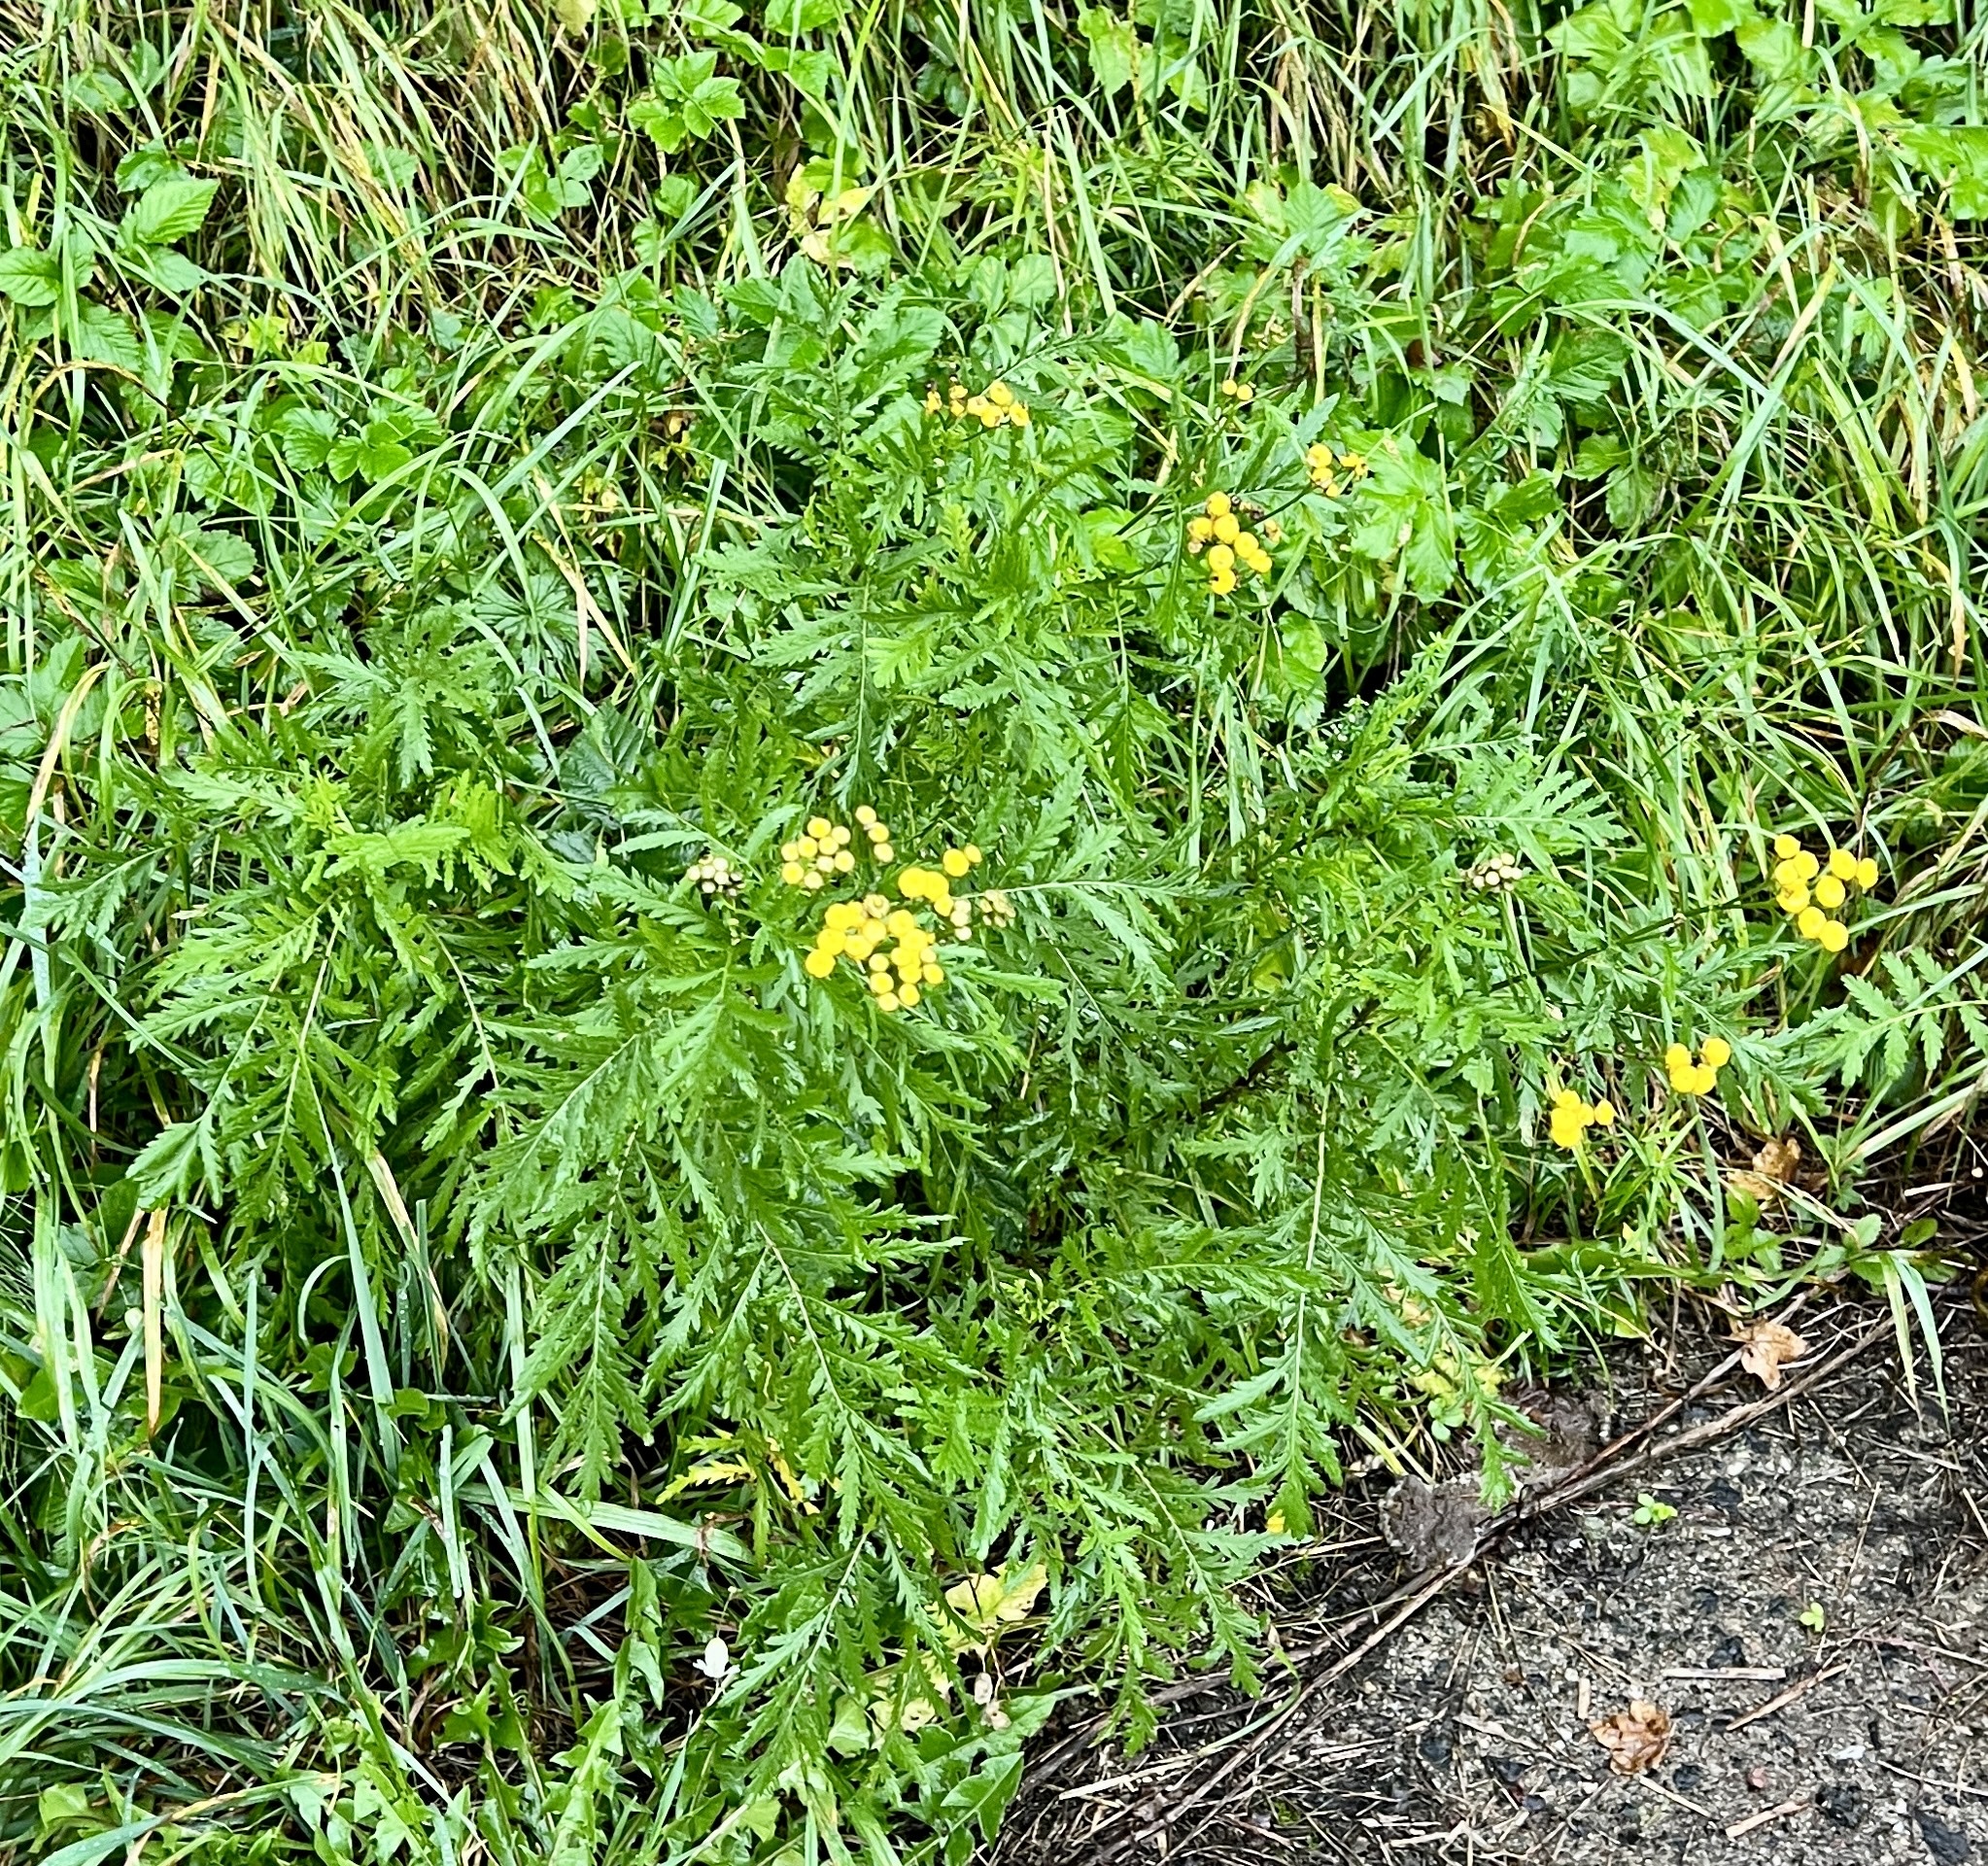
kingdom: Plantae
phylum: Tracheophyta
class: Magnoliopsida
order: Asterales
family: Asteraceae
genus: Tanacetum
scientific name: Tanacetum vulgare
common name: Common tansy
